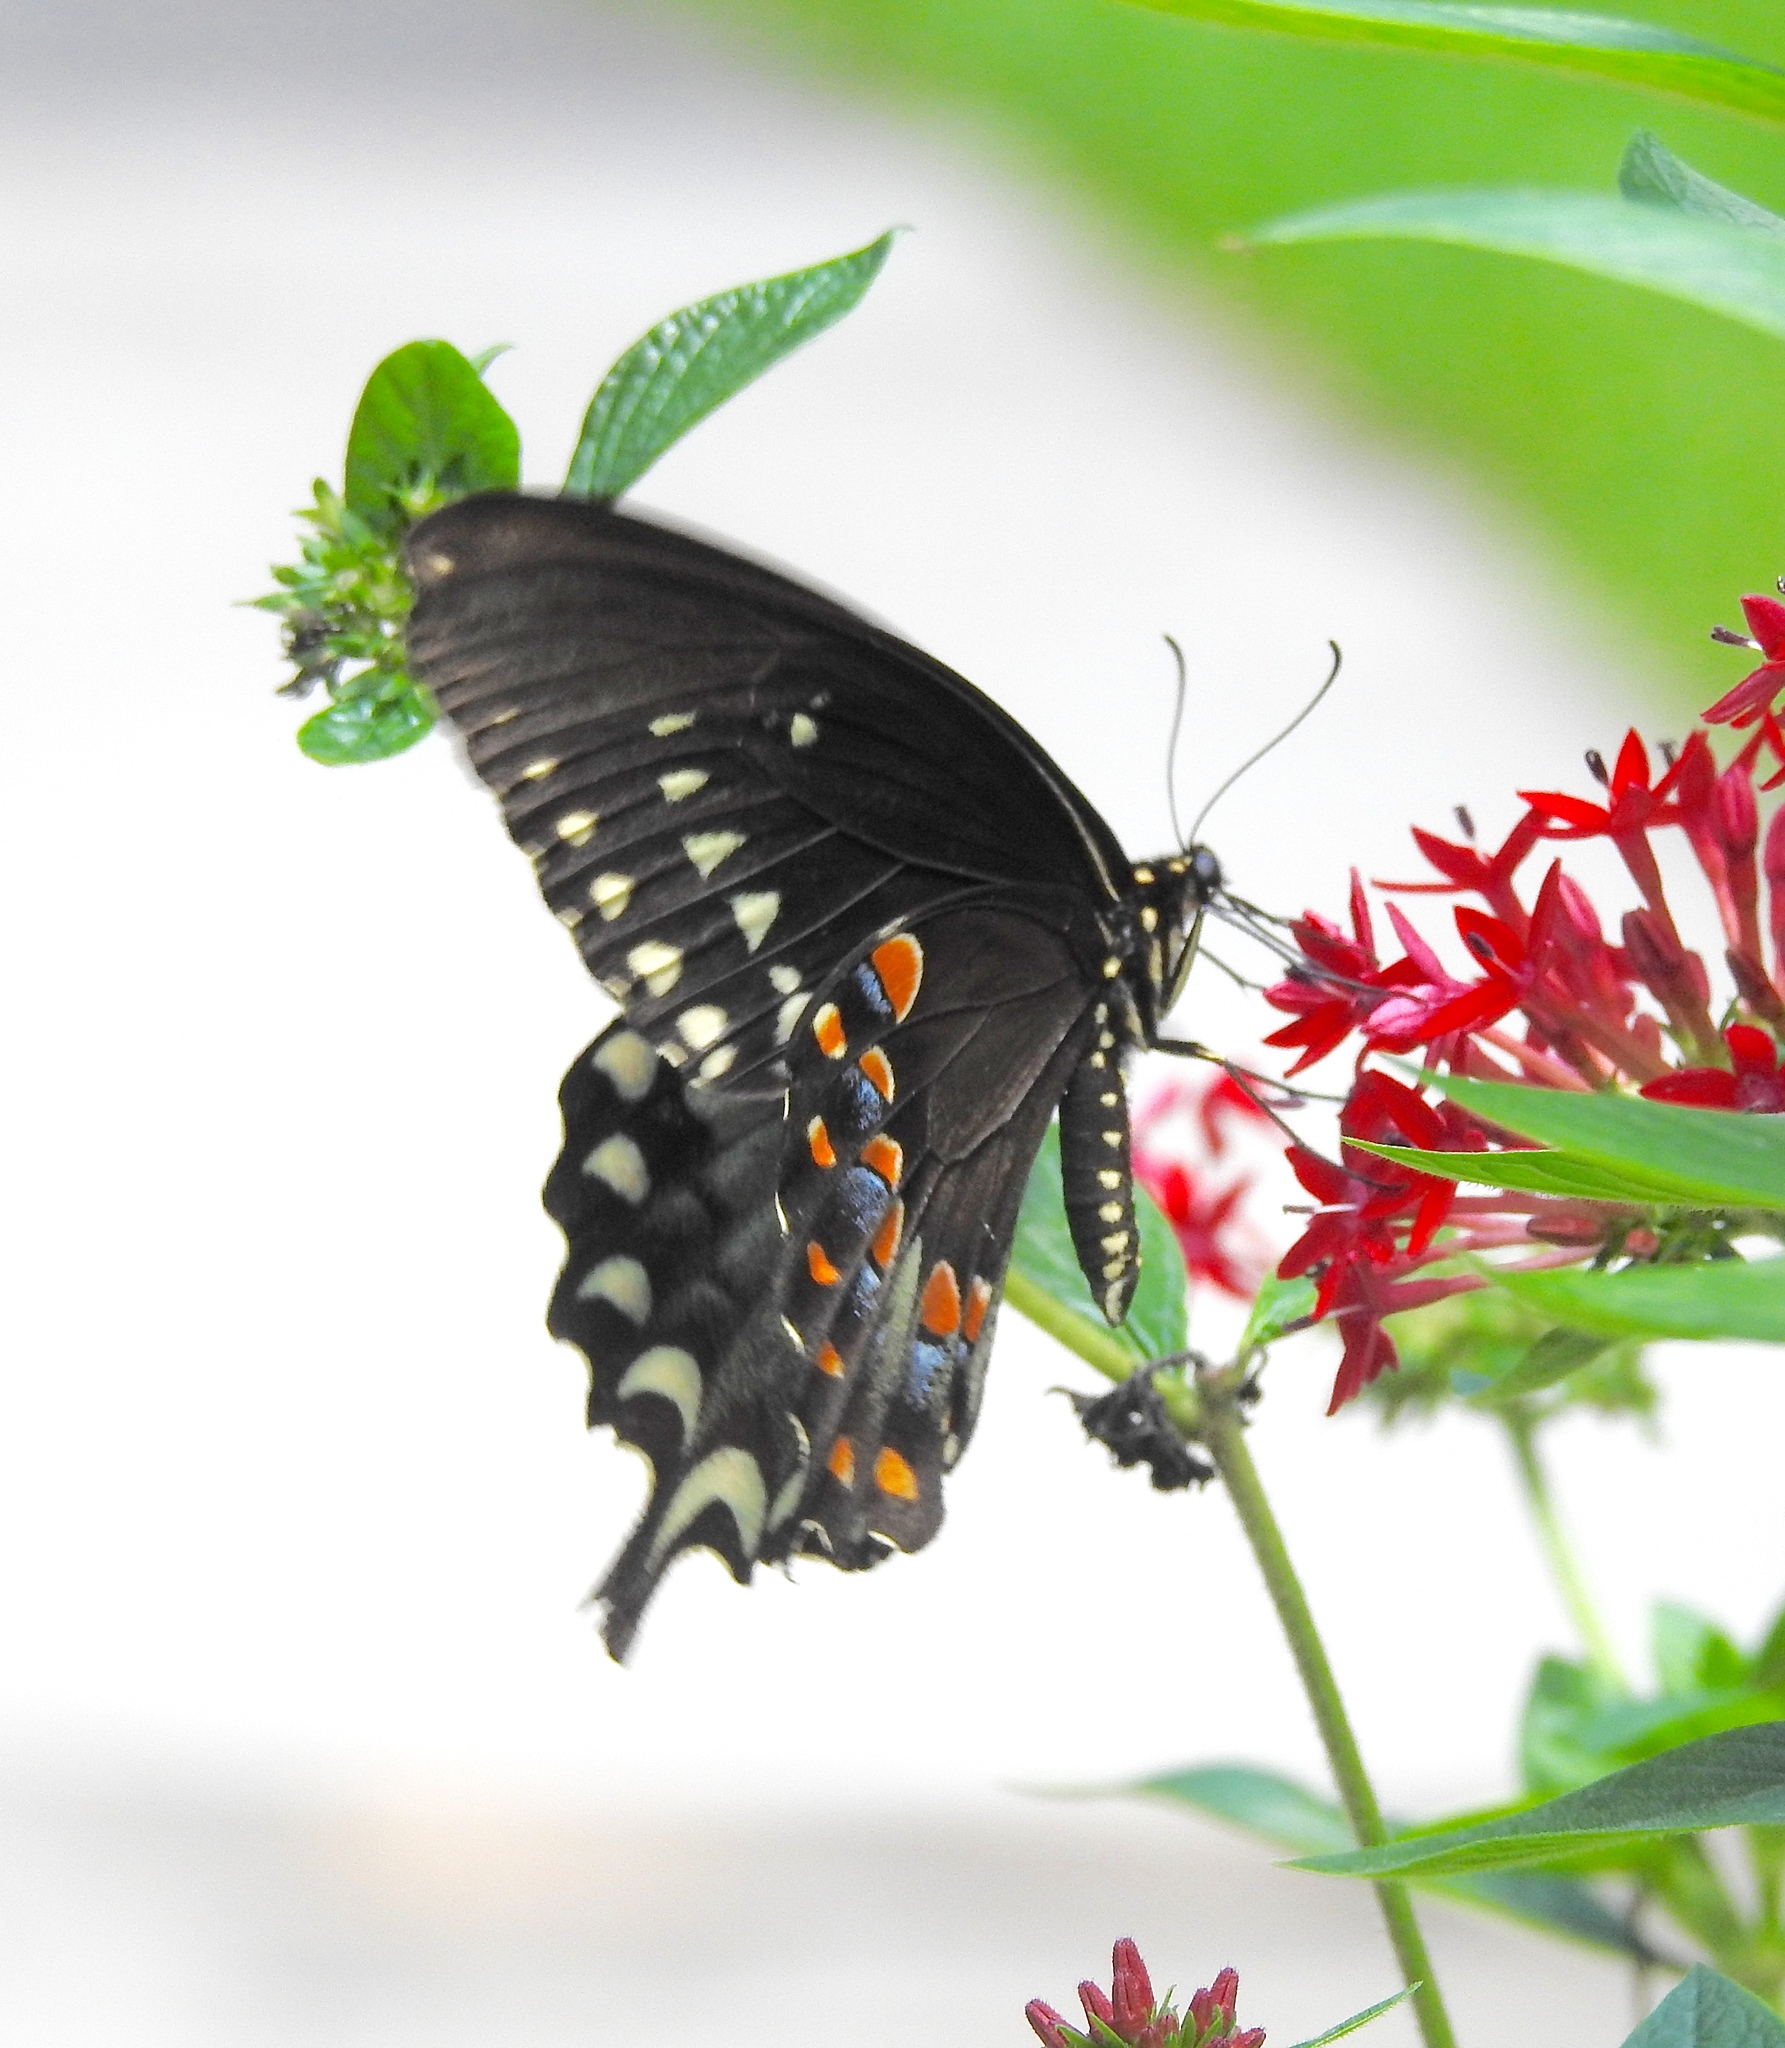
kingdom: Animalia
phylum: Arthropoda
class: Insecta
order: Lepidoptera
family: Papilionidae
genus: Papilio
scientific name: Papilio troilus
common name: Spicebush swallowtail
